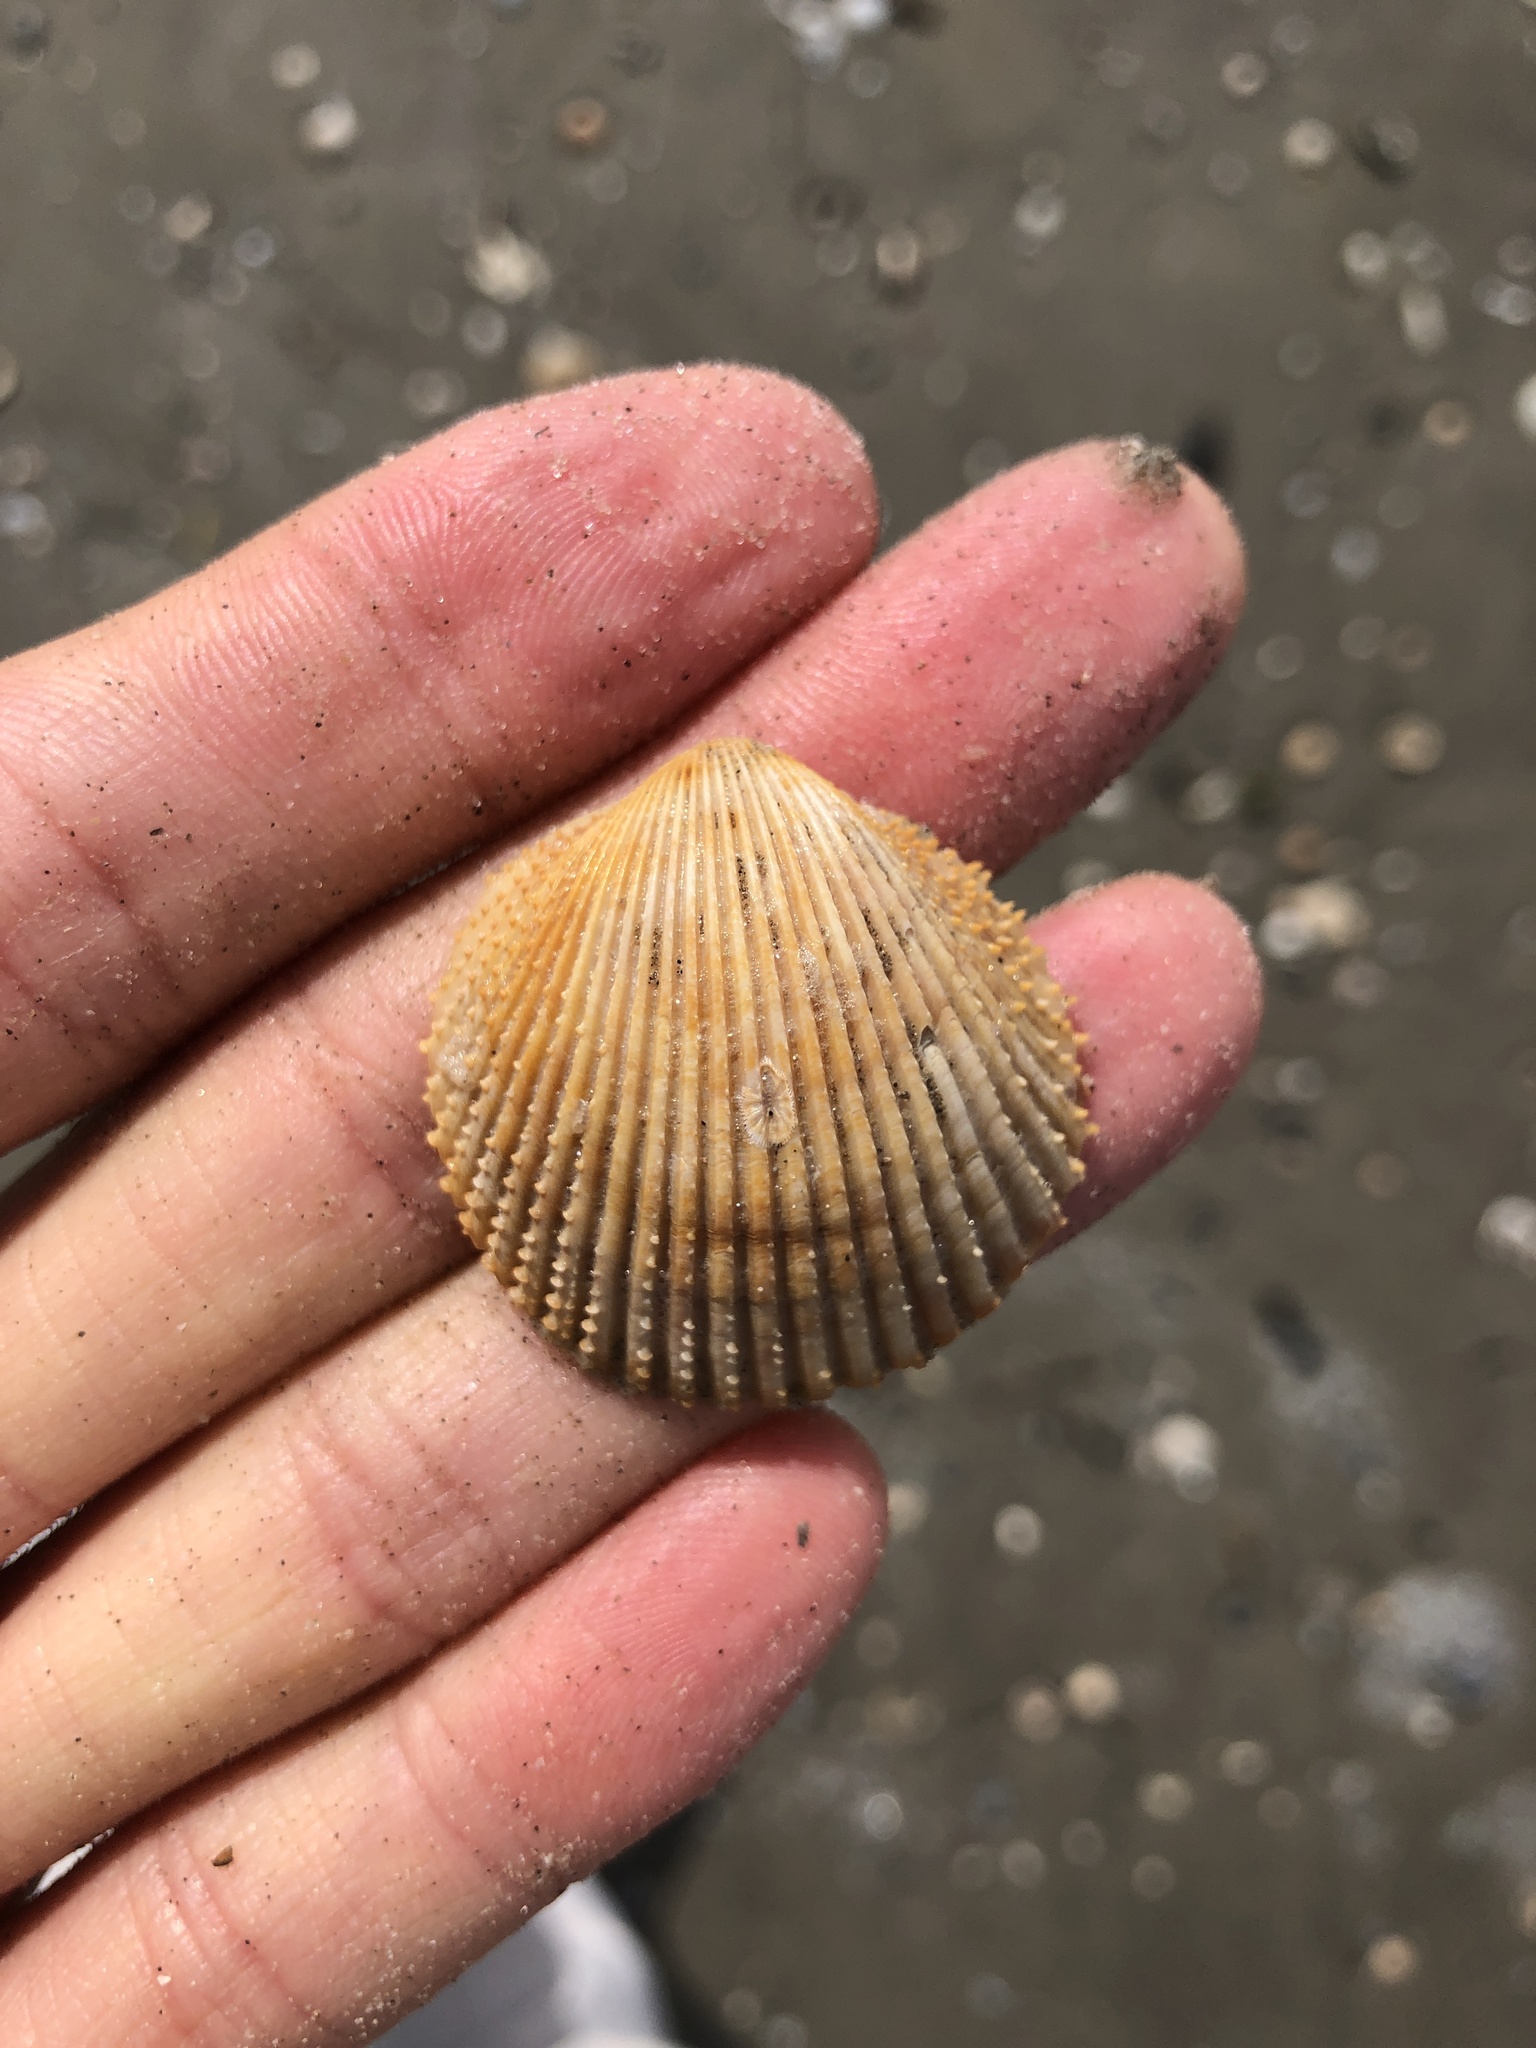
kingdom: Animalia
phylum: Mollusca
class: Bivalvia
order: Cardiida
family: Cardiidae
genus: Dallocardia
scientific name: Dallocardia muricata
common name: Yellow pricklycockle
